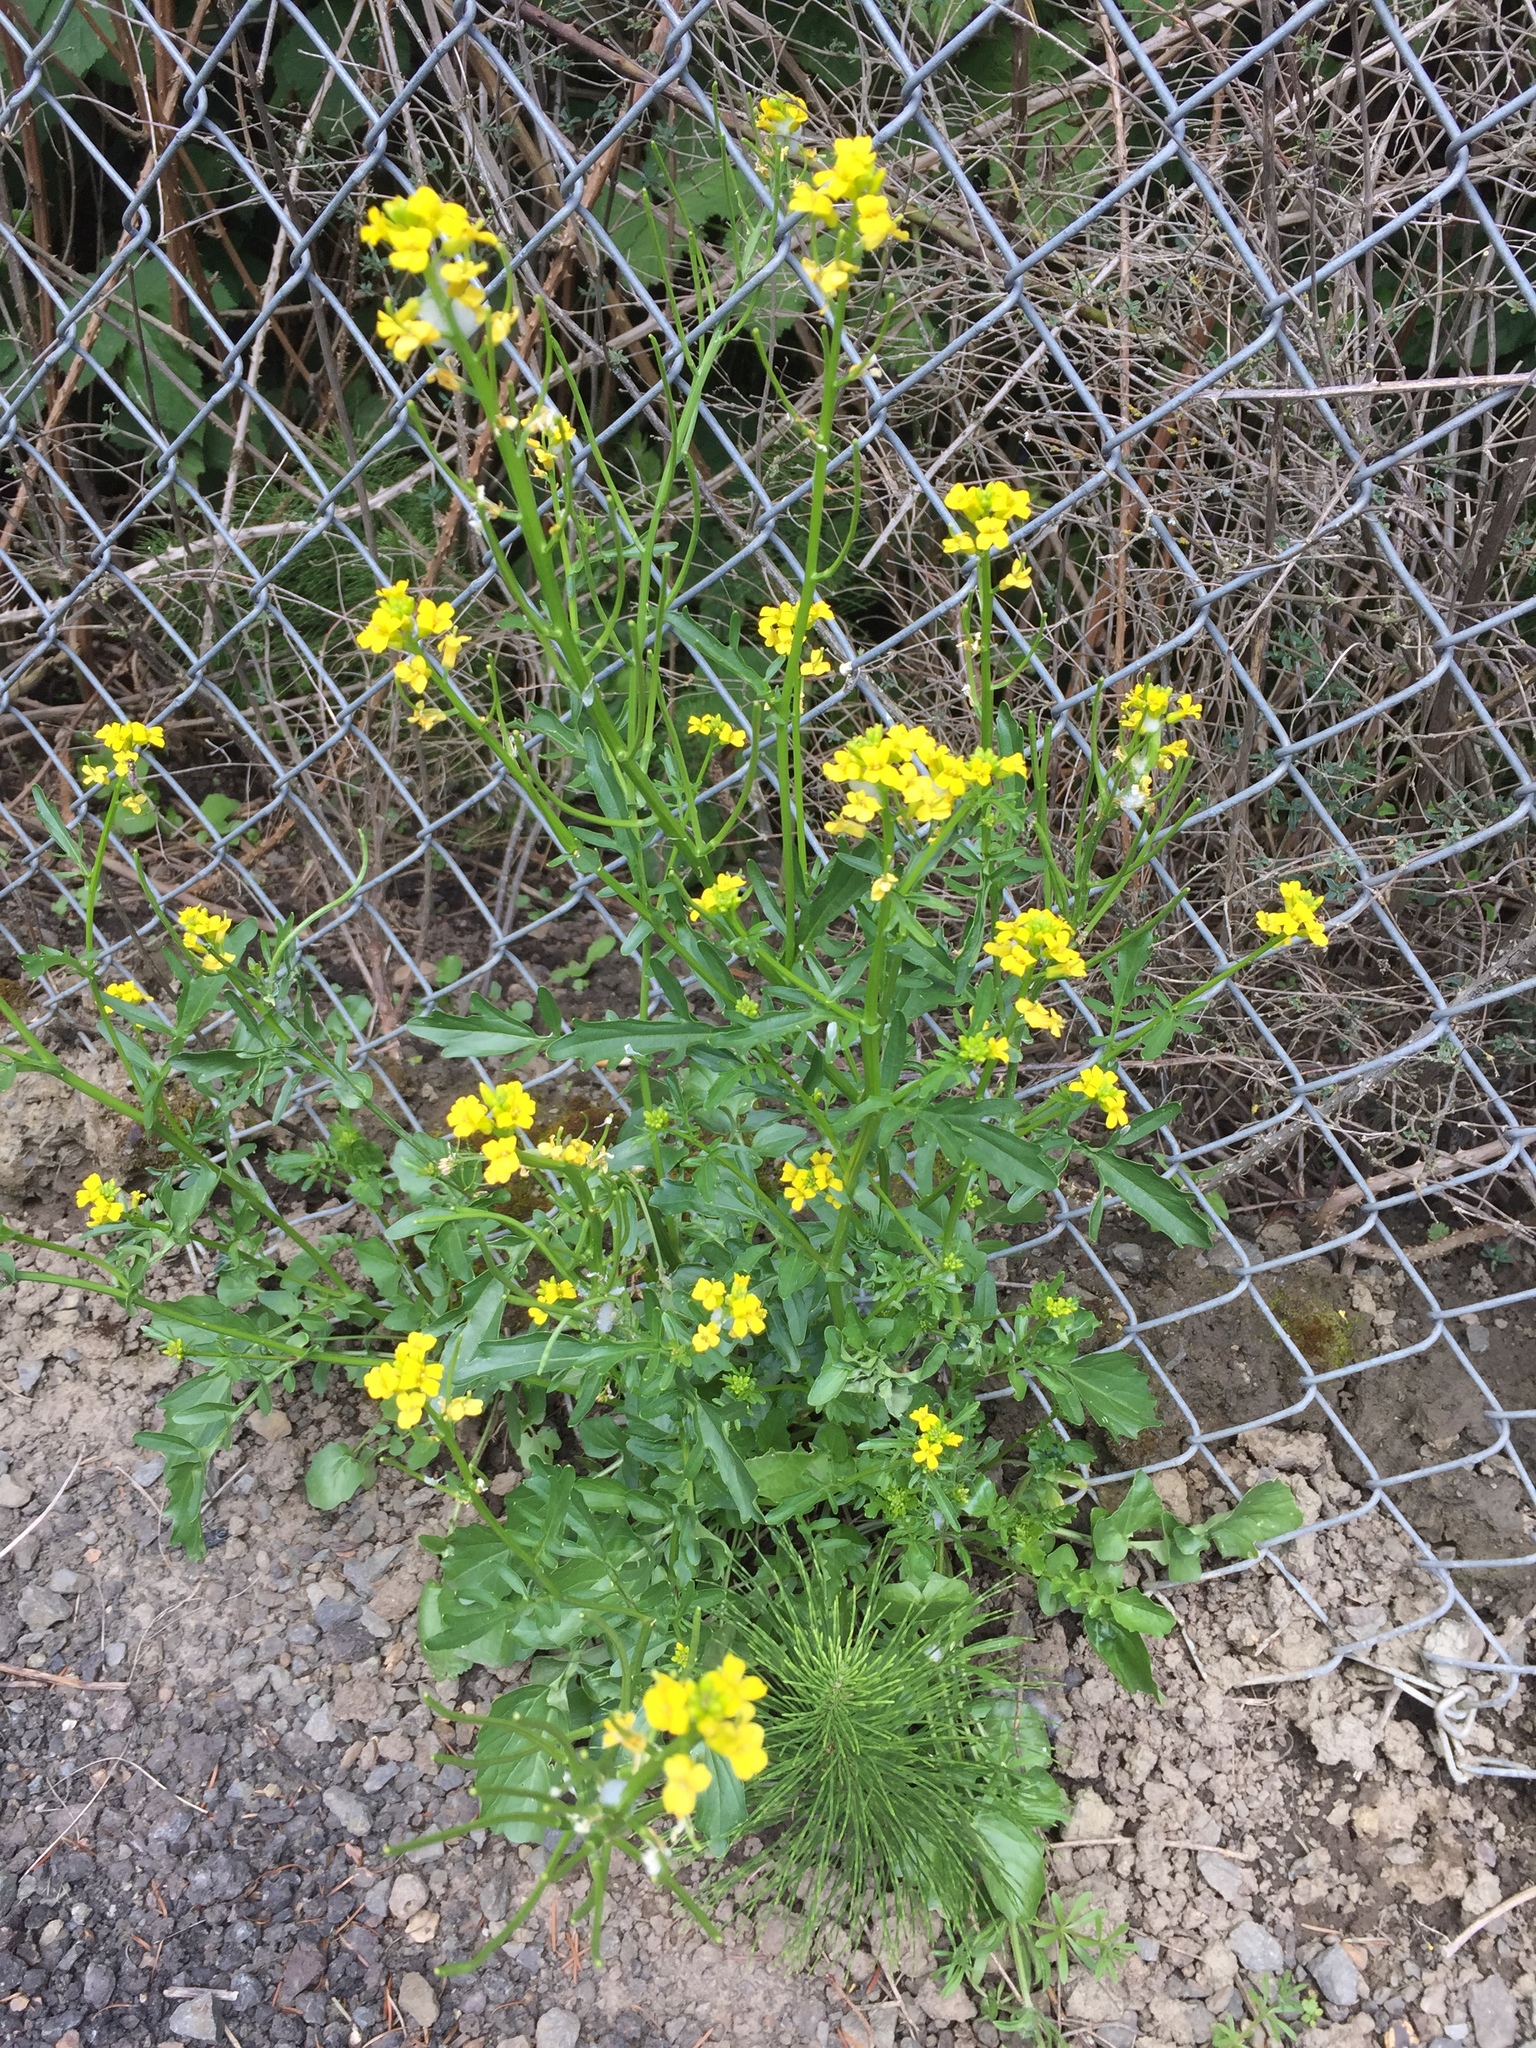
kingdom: Plantae
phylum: Tracheophyta
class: Magnoliopsida
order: Brassicales
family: Brassicaceae
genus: Barbarea
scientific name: Barbarea vulgaris
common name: Cressy-greens
